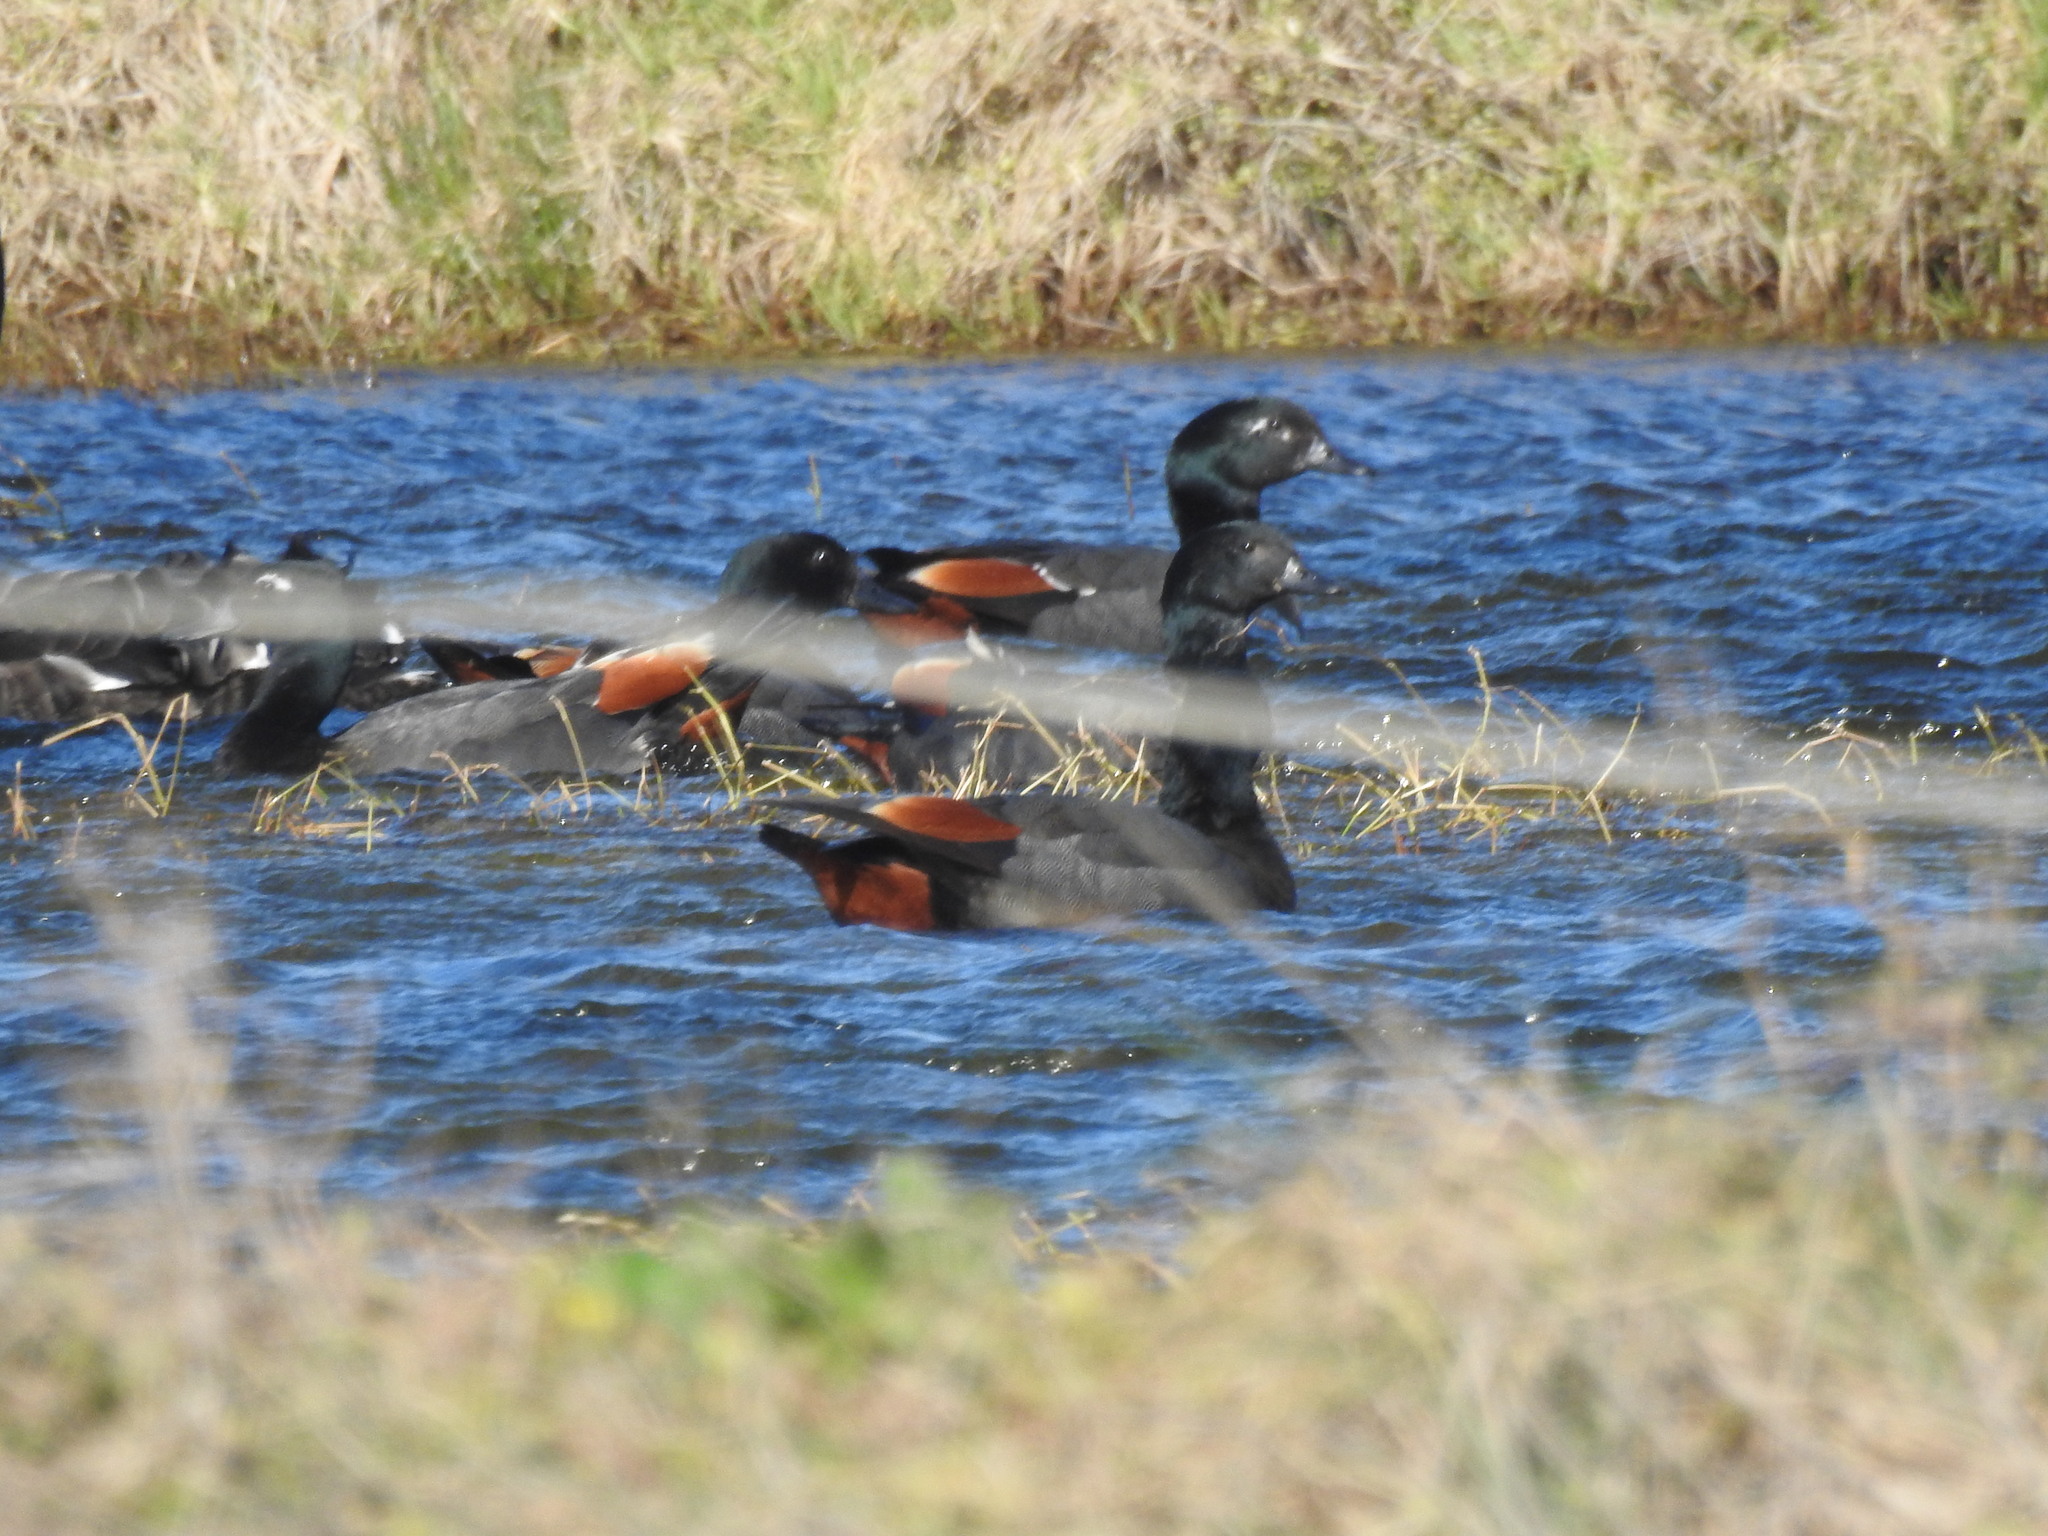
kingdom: Animalia
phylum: Chordata
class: Aves
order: Anseriformes
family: Anatidae
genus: Tadorna
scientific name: Tadorna variegata
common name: Paradise shelduck
